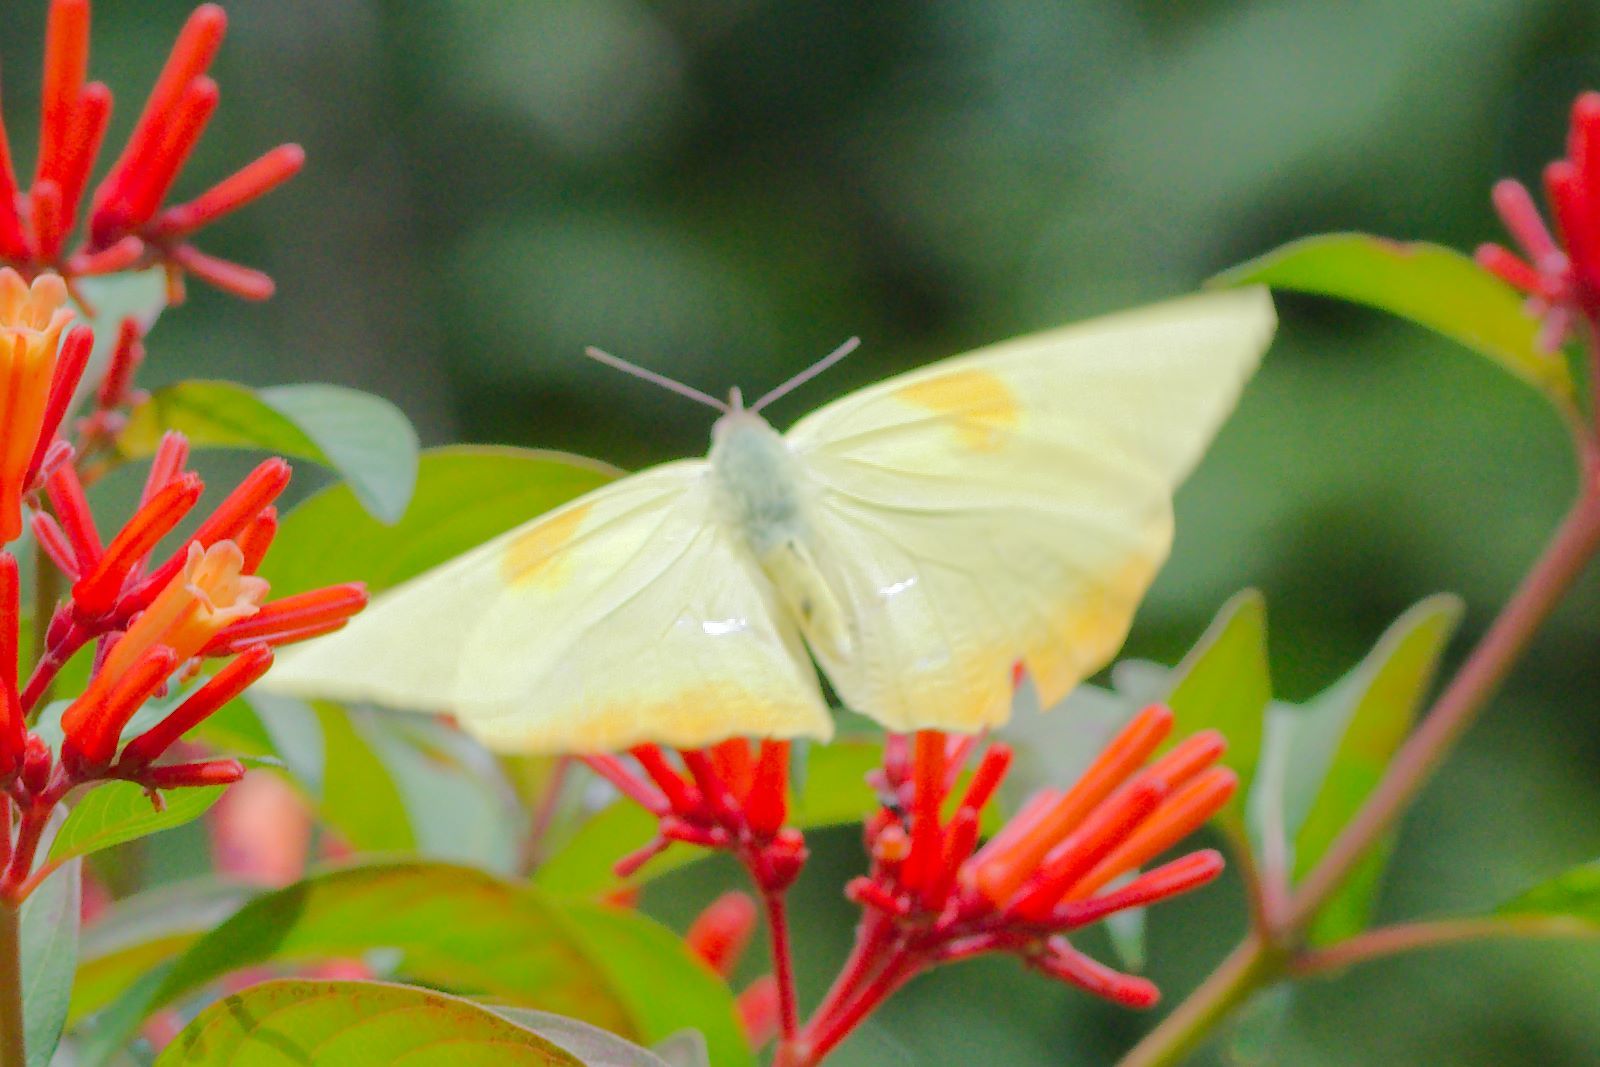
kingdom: Animalia
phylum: Arthropoda
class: Insecta
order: Lepidoptera
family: Pieridae
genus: Phoebis
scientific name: Phoebis philea
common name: Orange-barred giant sulphur
